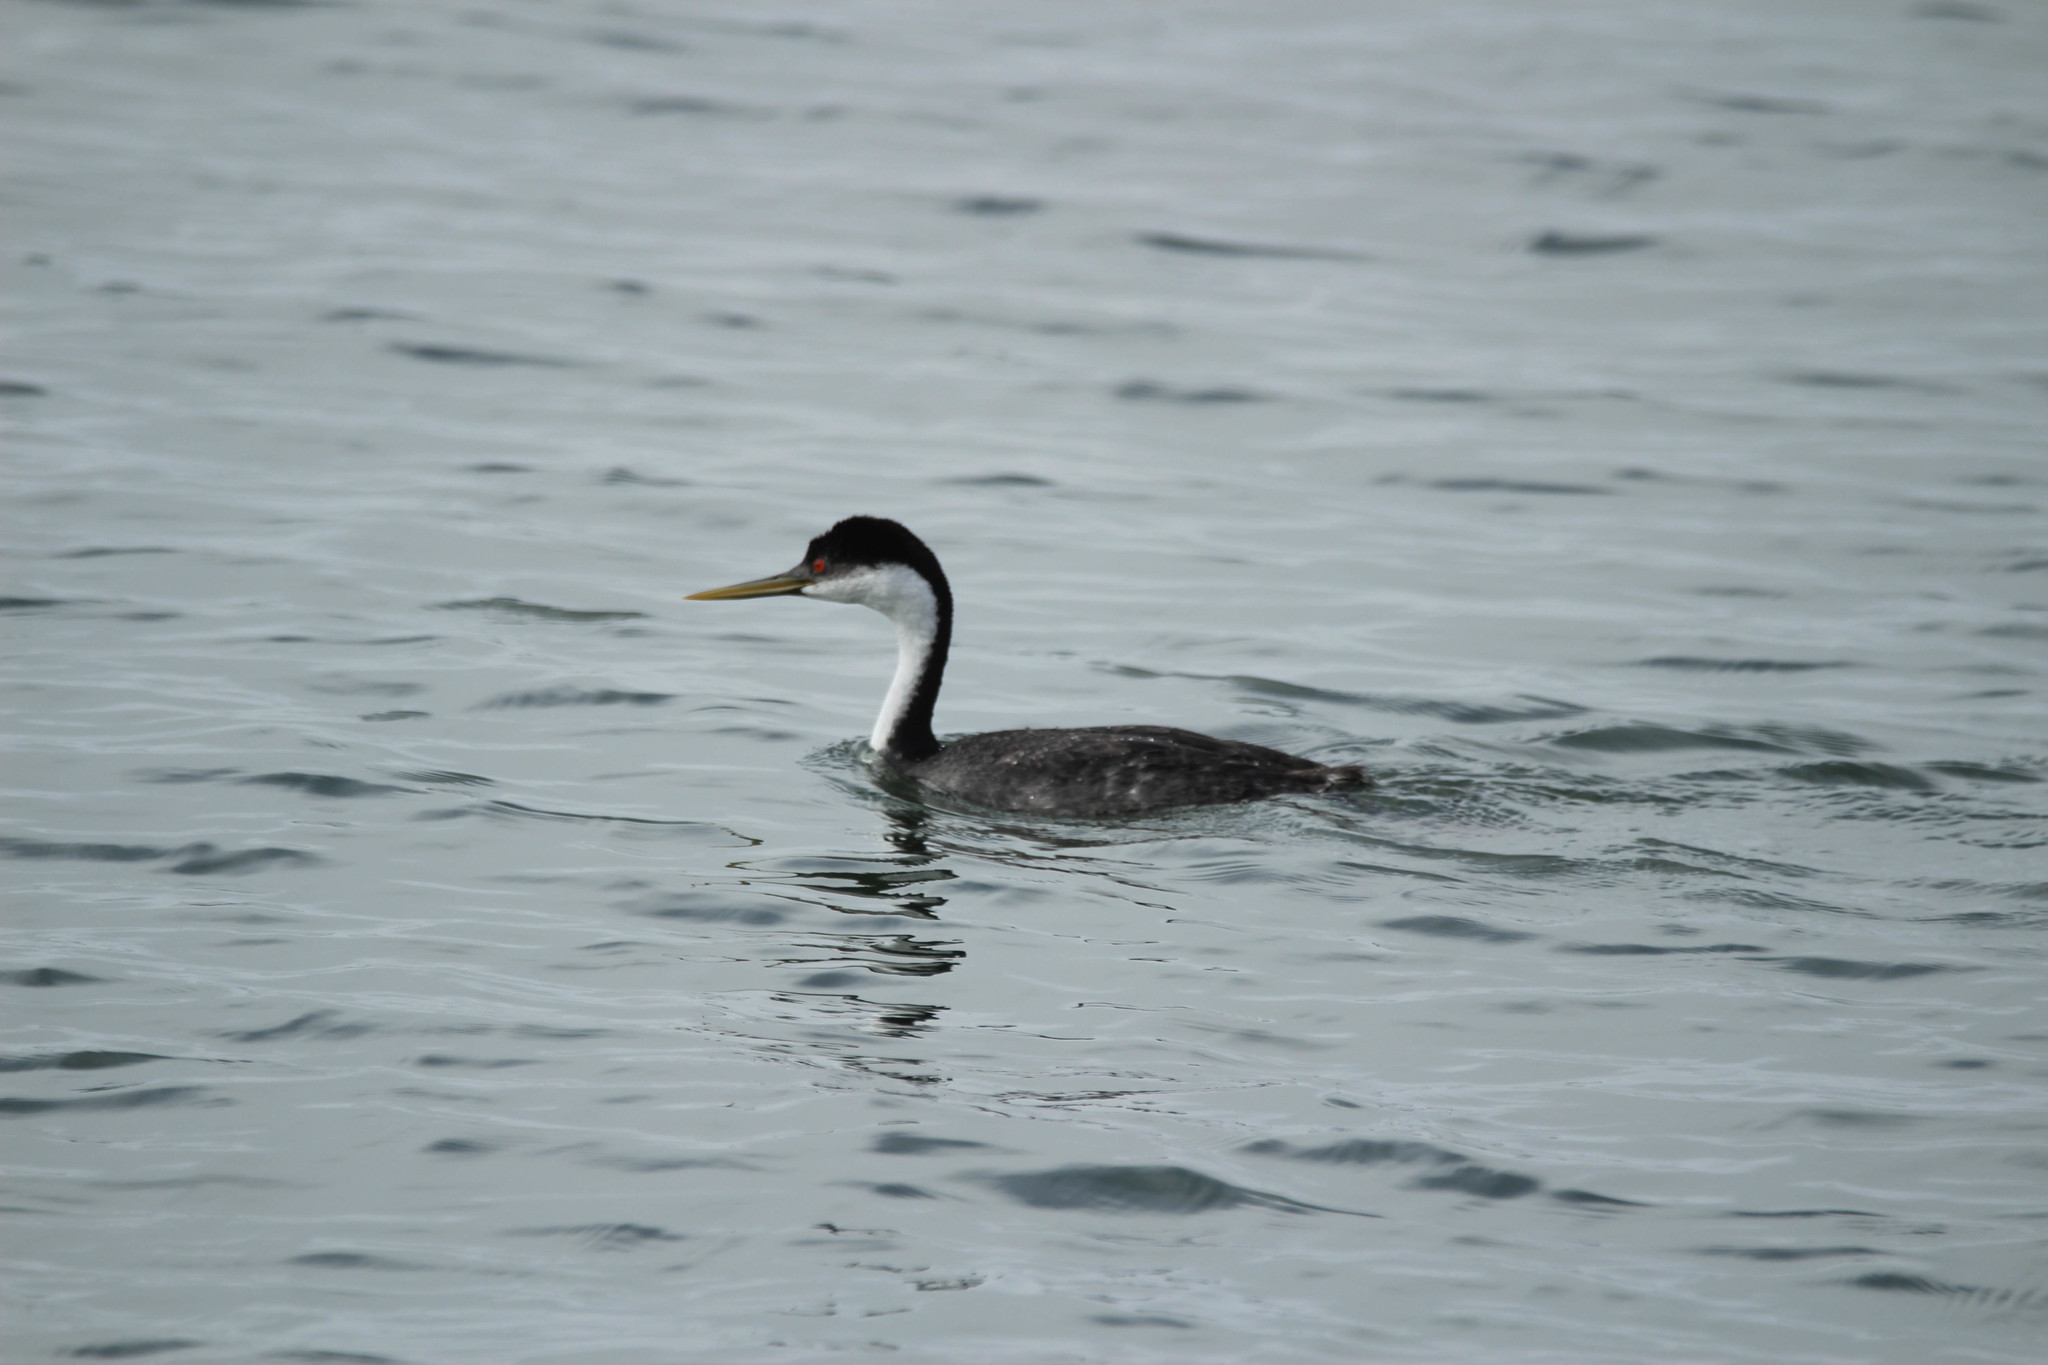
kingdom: Animalia
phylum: Chordata
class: Aves
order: Podicipediformes
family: Podicipedidae
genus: Aechmophorus
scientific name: Aechmophorus occidentalis
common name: Western grebe
